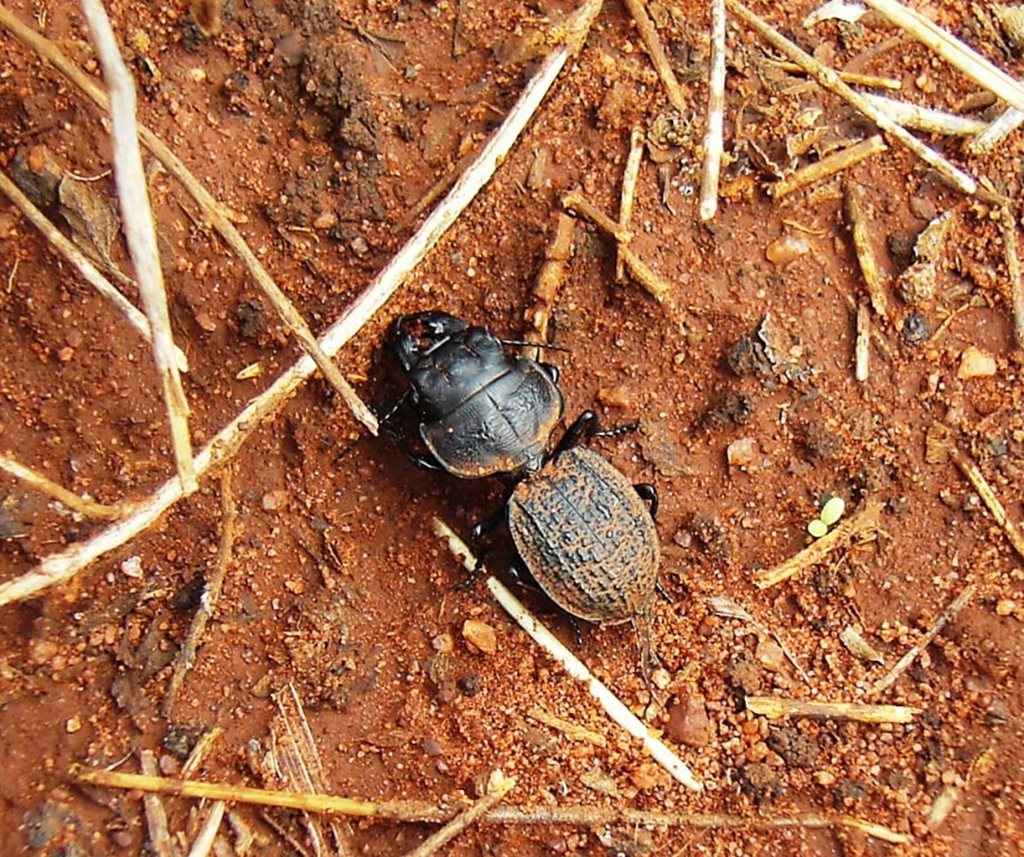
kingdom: Animalia
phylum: Arthropoda
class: Insecta
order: Coleoptera
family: Carabidae
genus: Philoscaphus
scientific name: Philoscaphus mastersii
